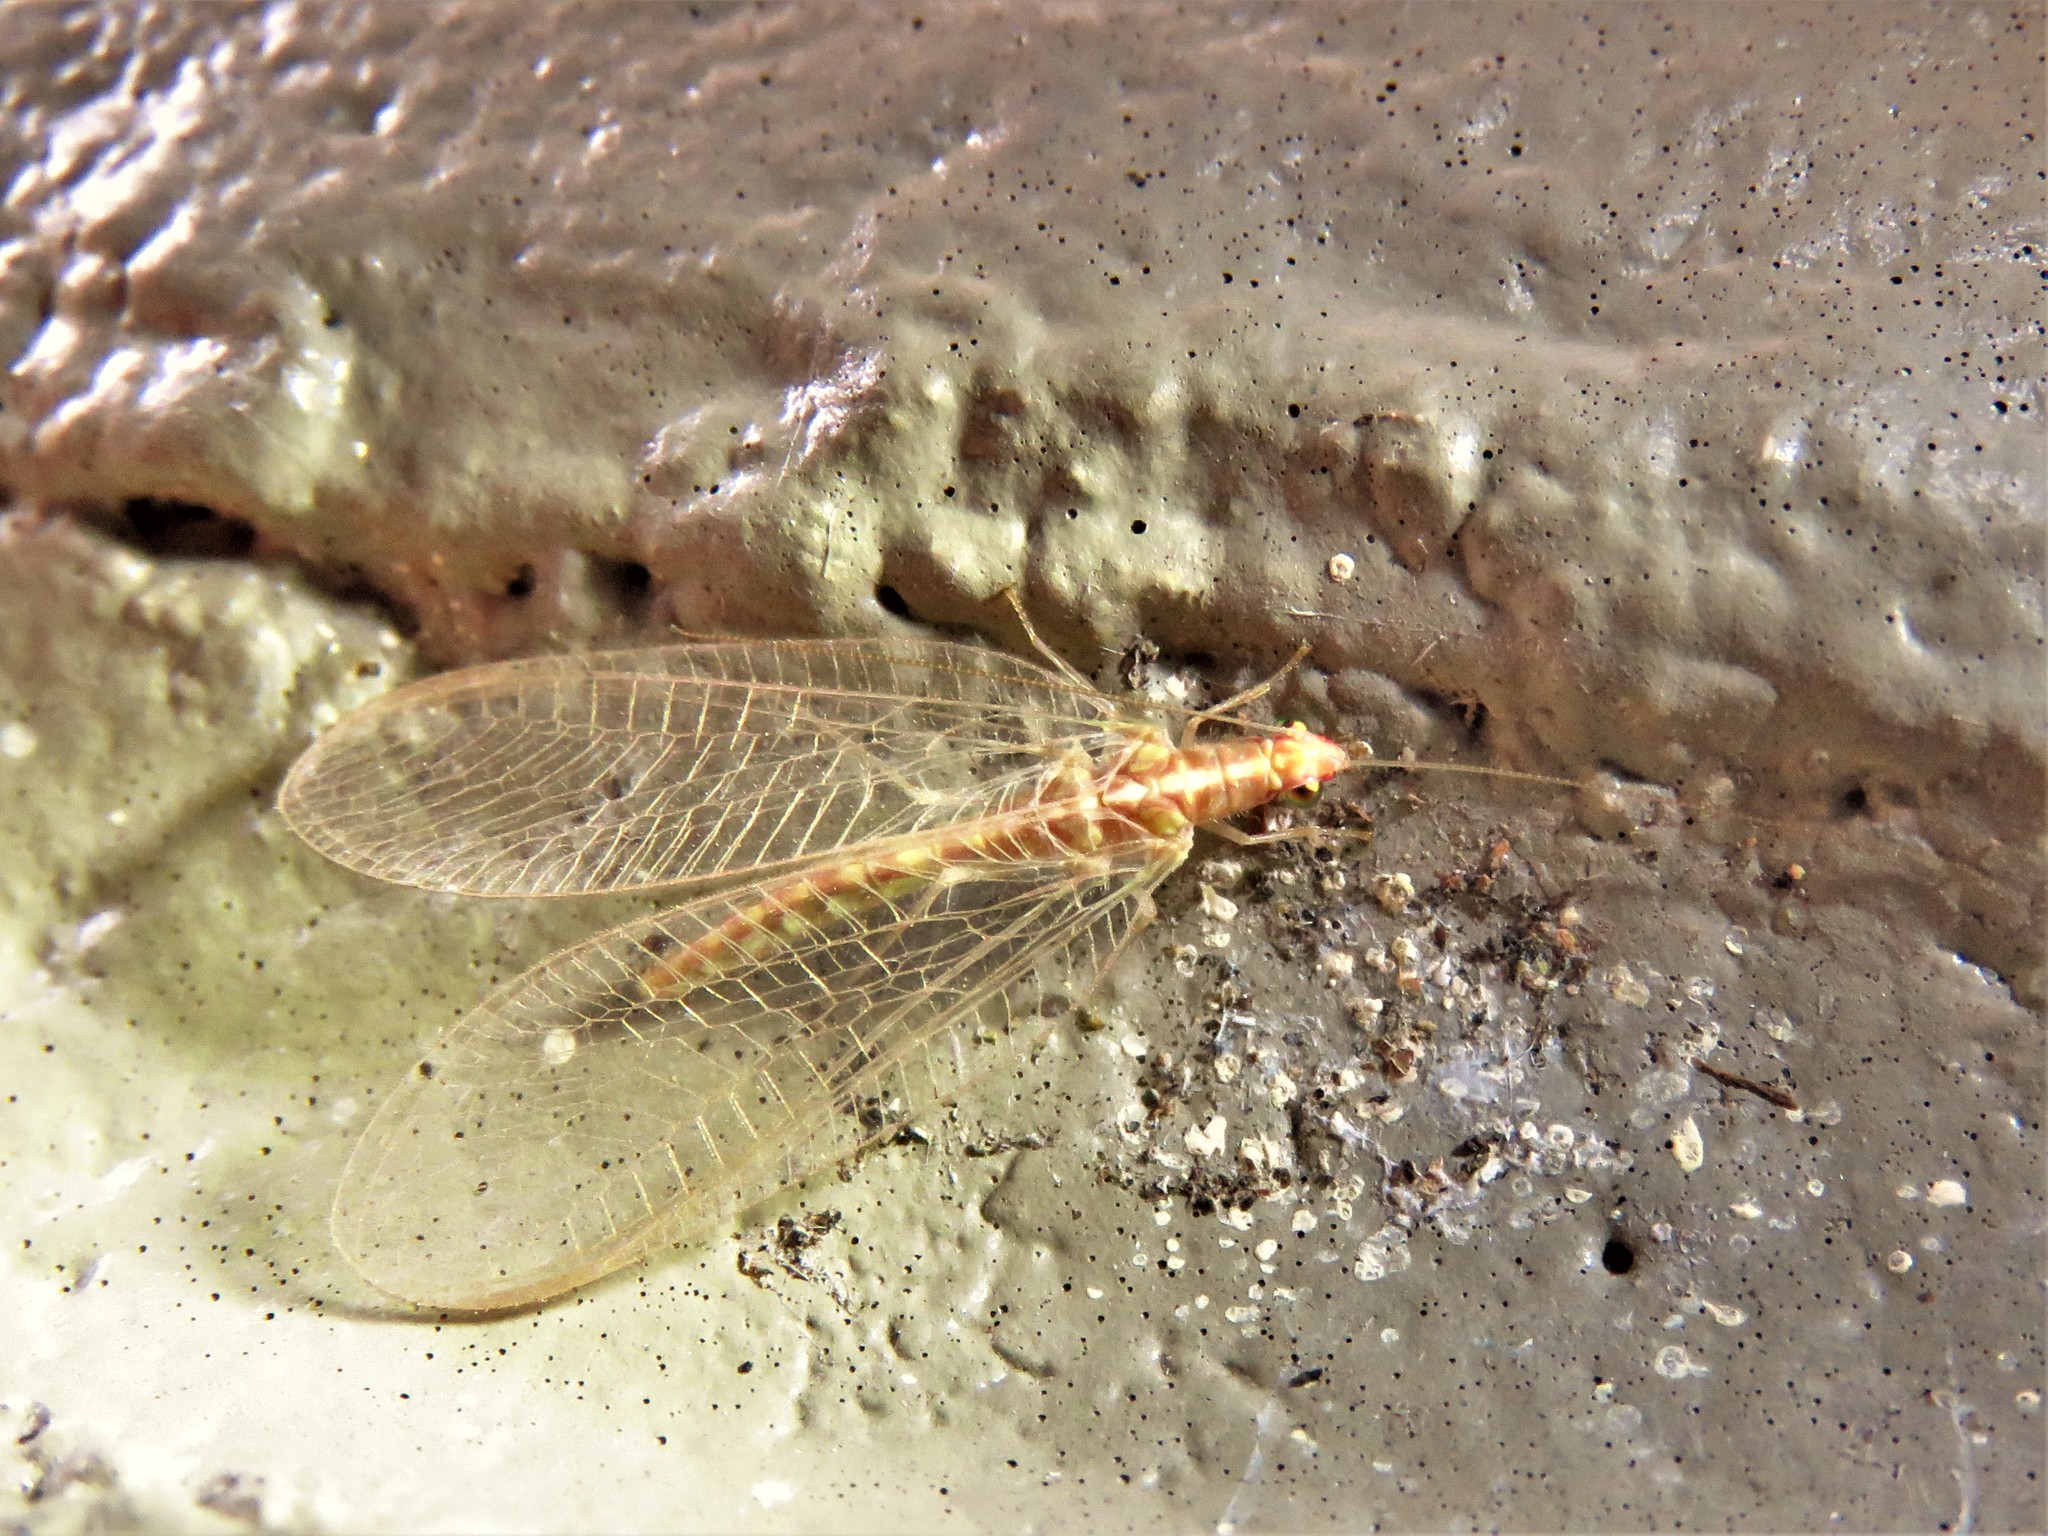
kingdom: Animalia
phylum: Arthropoda
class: Insecta
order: Neuroptera
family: Chrysopidae
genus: Chrysoperla
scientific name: Chrysoperla rufilabris
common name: Red-lipped green lacewing
